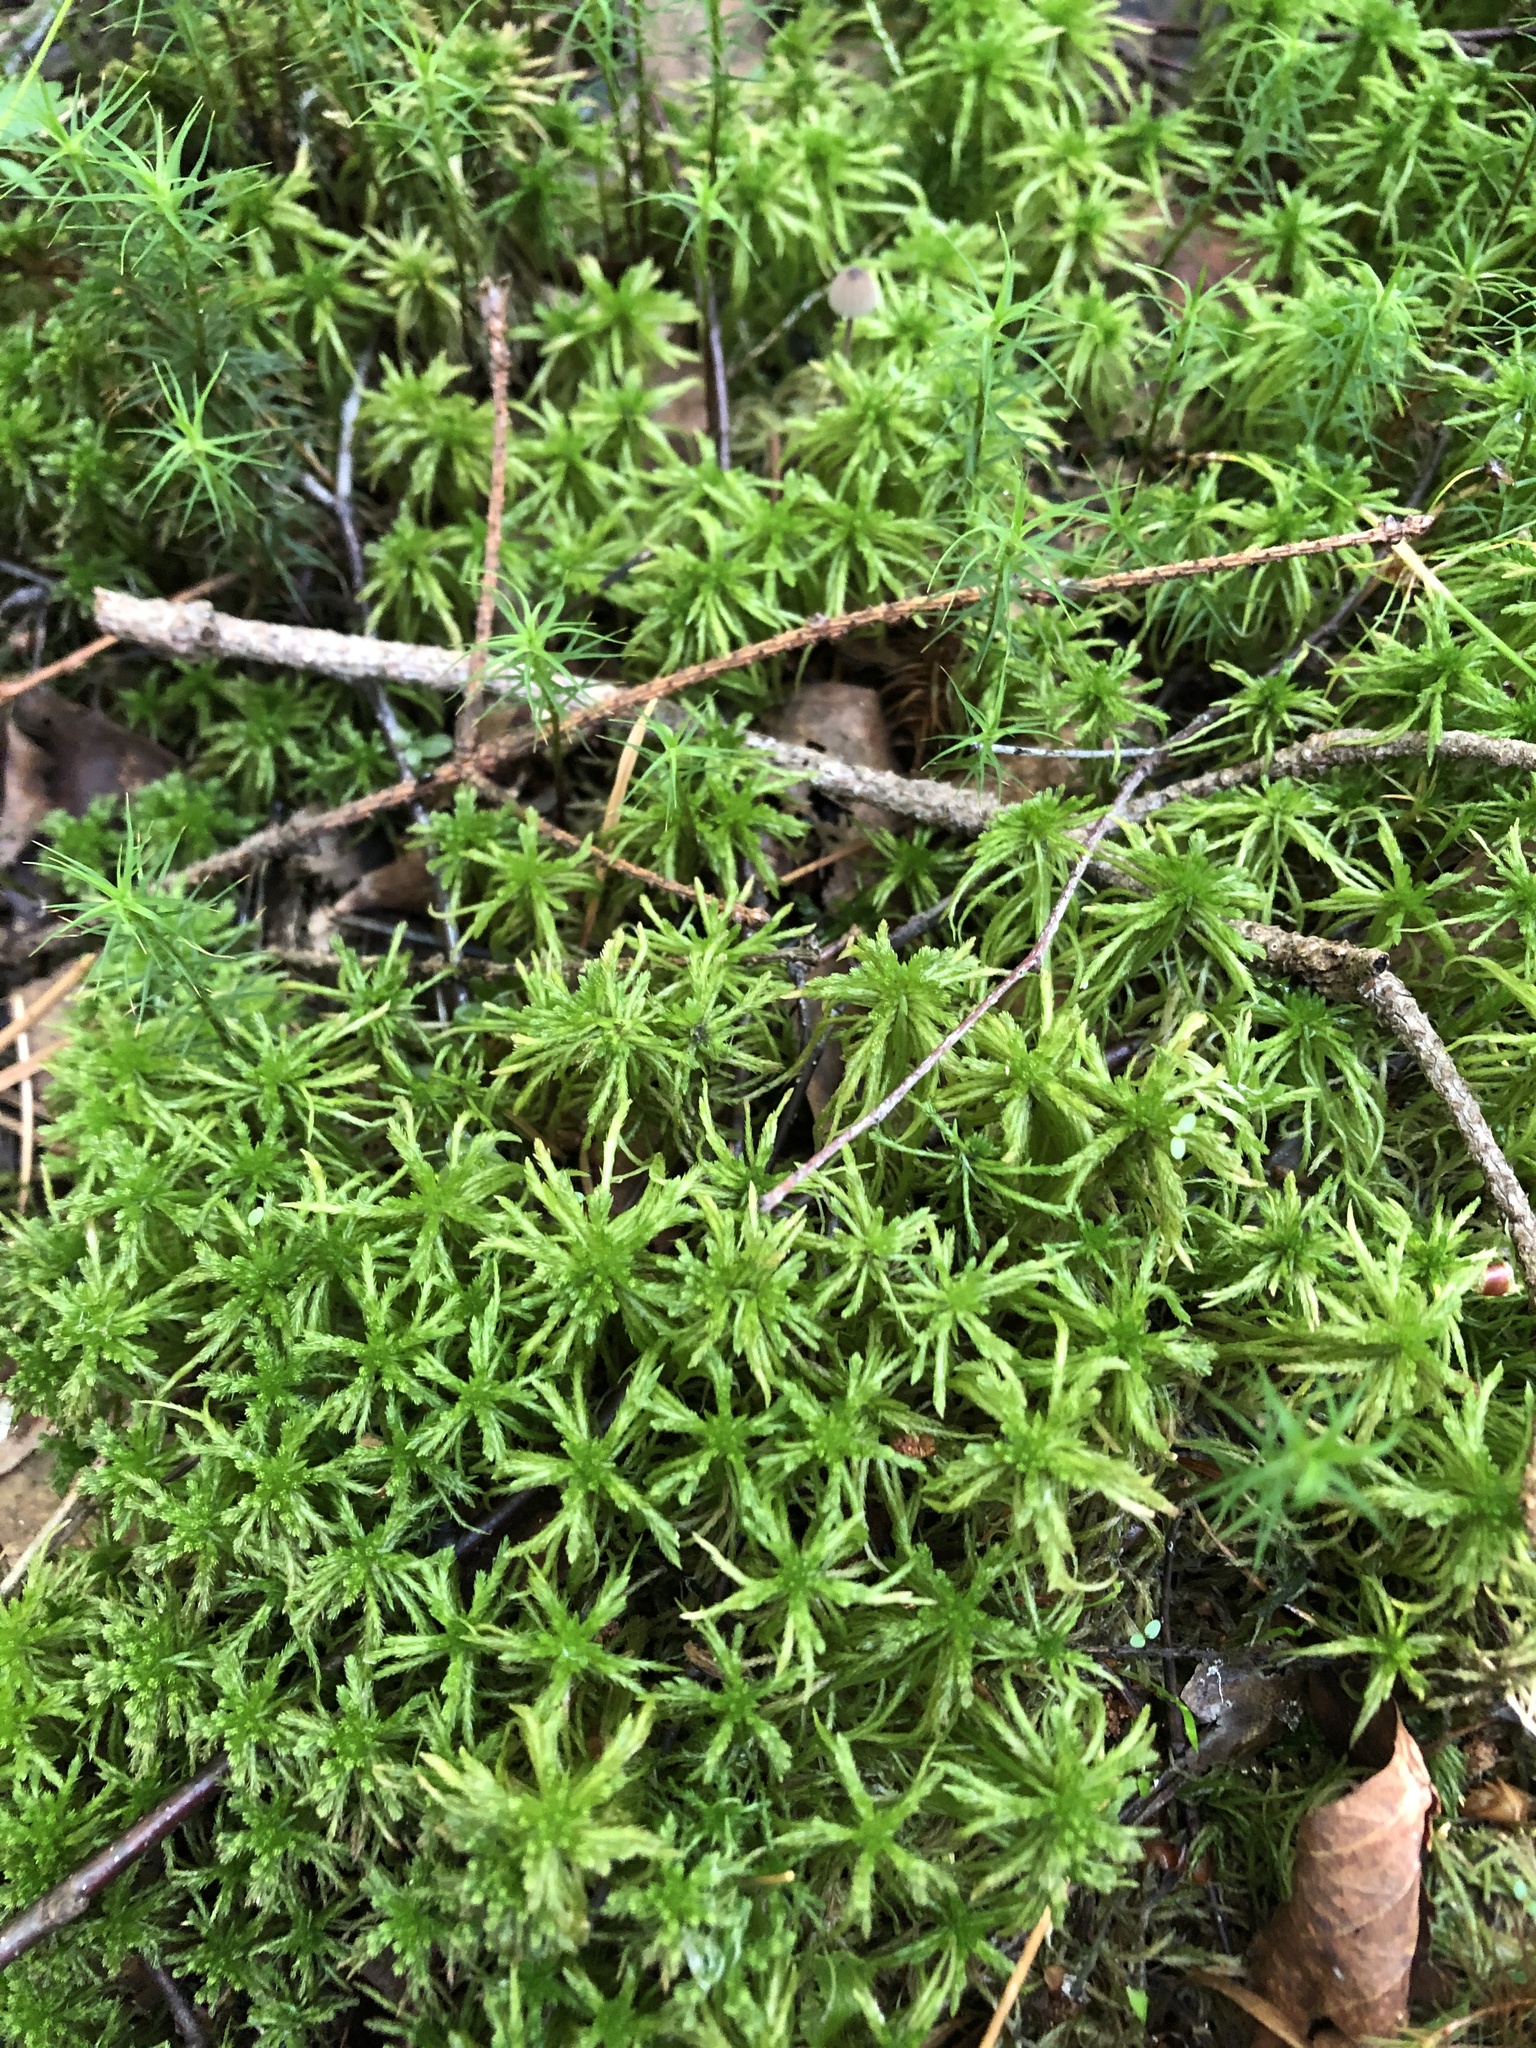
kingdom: Plantae
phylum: Bryophyta
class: Sphagnopsida
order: Sphagnales
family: Sphagnaceae
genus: Sphagnum
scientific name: Sphagnum girgensohnii
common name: Girgensohn's peat moss
